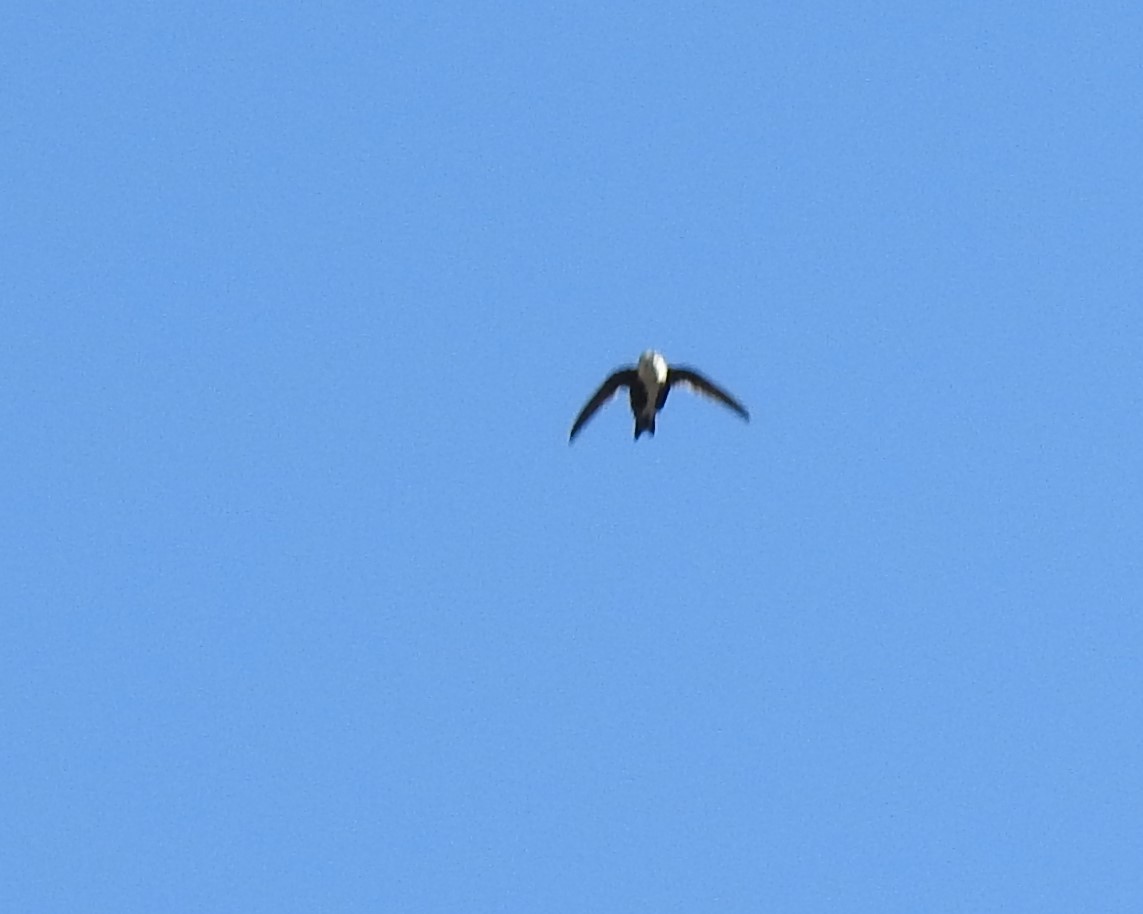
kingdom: Animalia
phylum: Chordata
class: Aves
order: Apodiformes
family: Apodidae
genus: Aeronautes
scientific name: Aeronautes saxatalis
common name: White-throated swift
